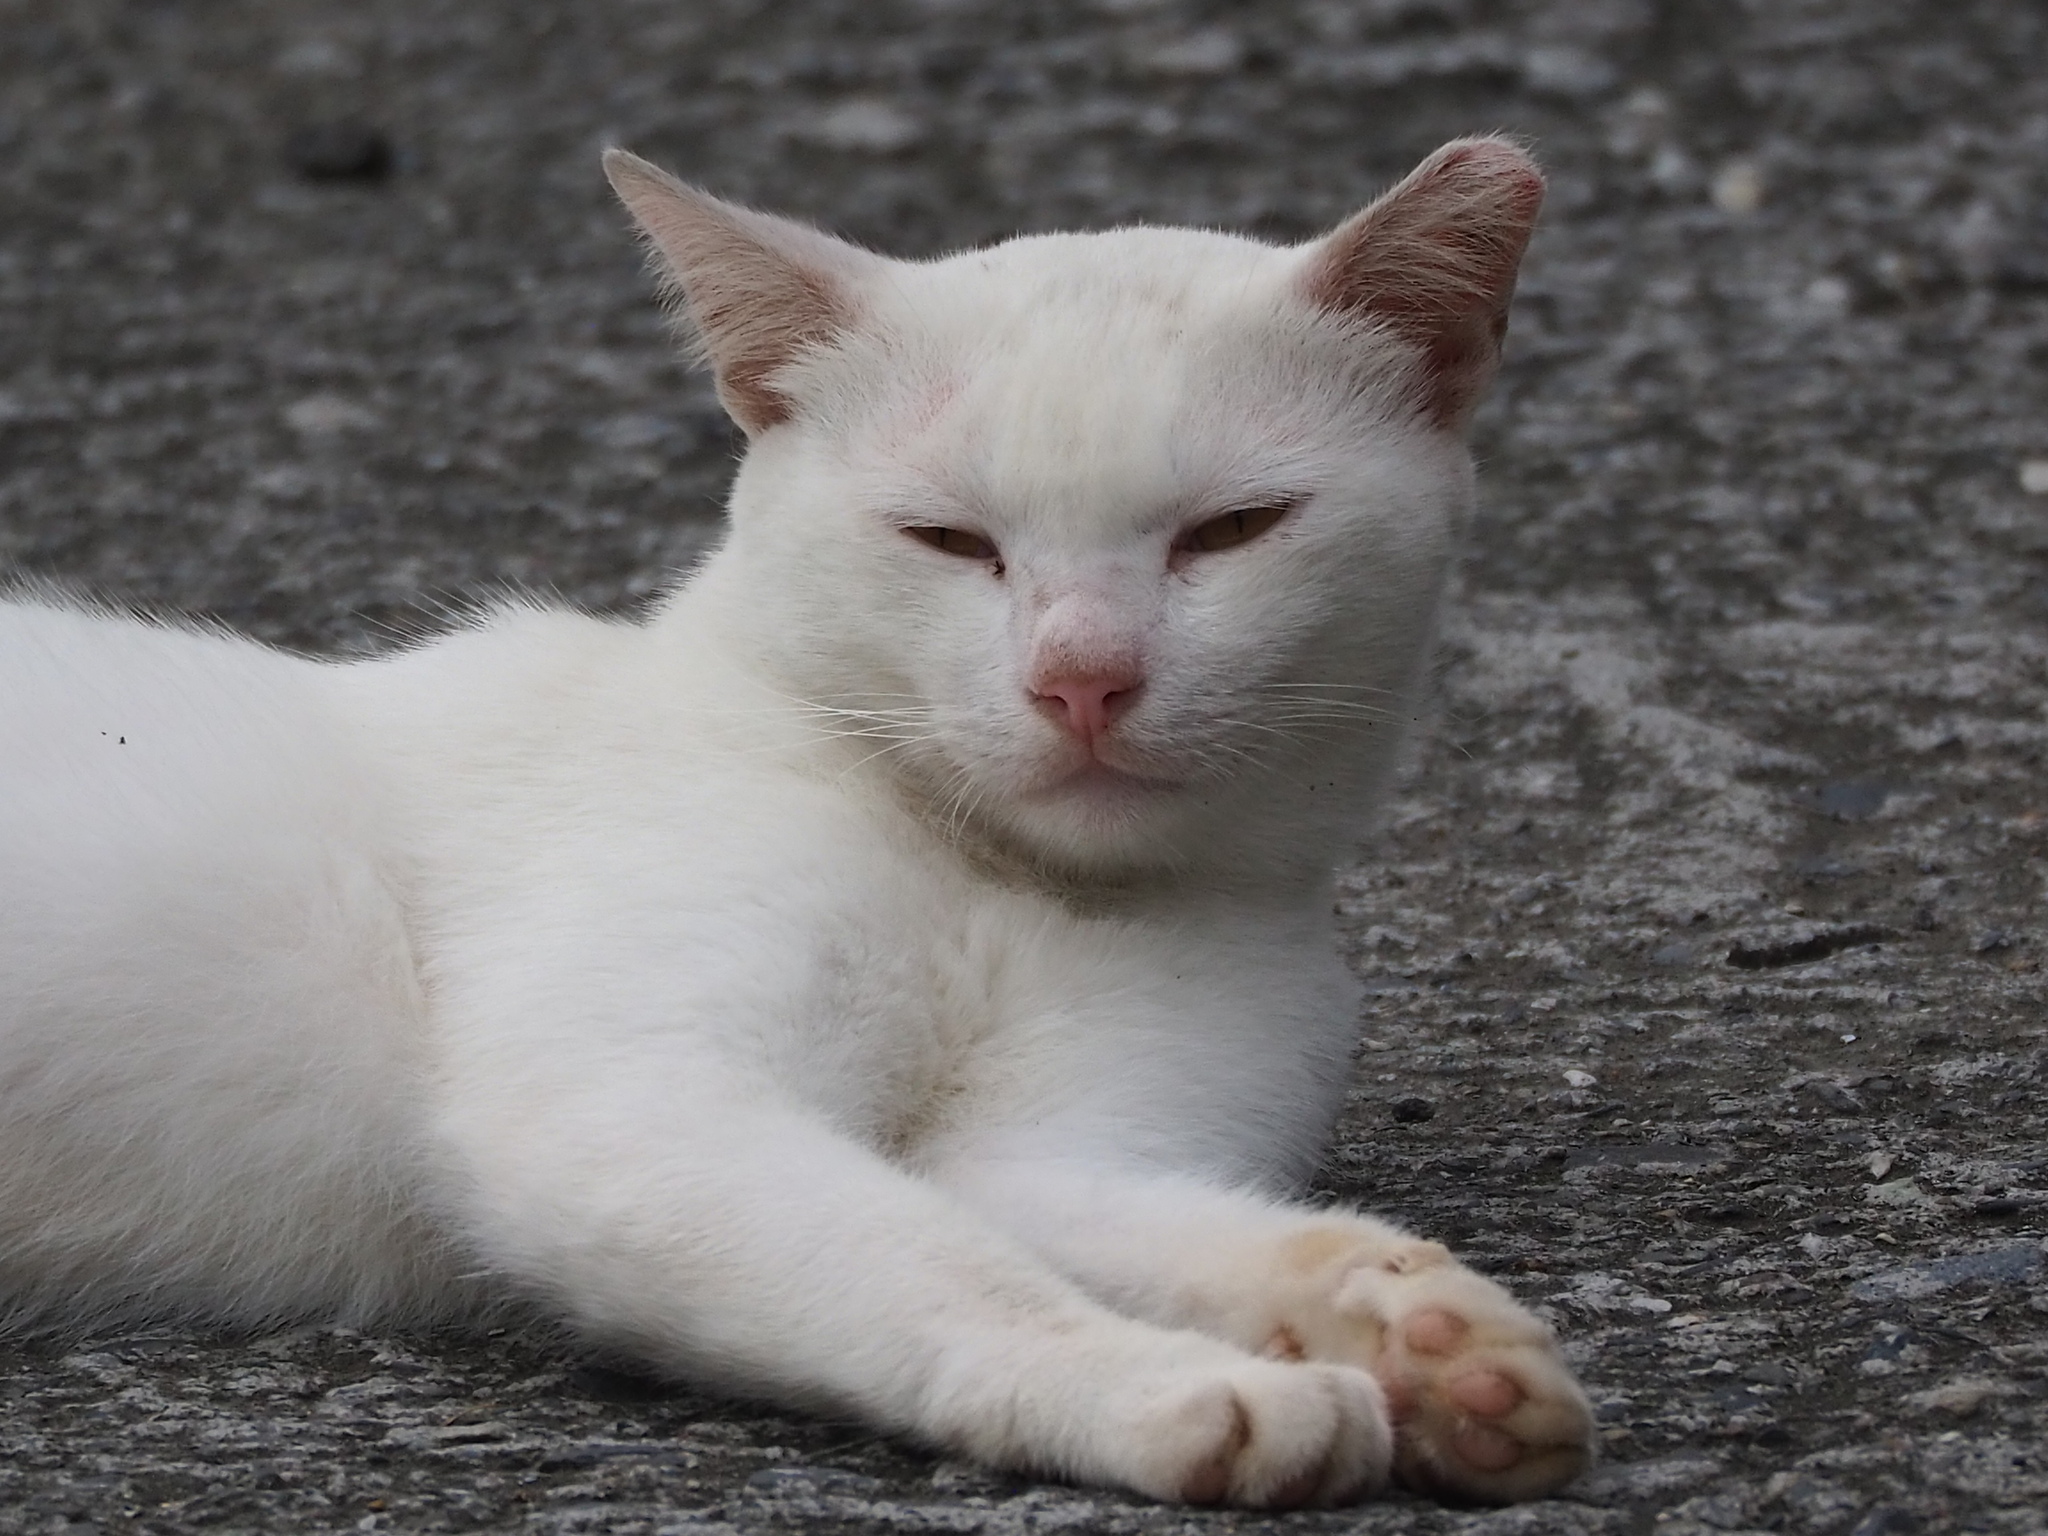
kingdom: Animalia
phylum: Chordata
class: Mammalia
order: Carnivora
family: Felidae
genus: Felis
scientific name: Felis catus
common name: Domestic cat
